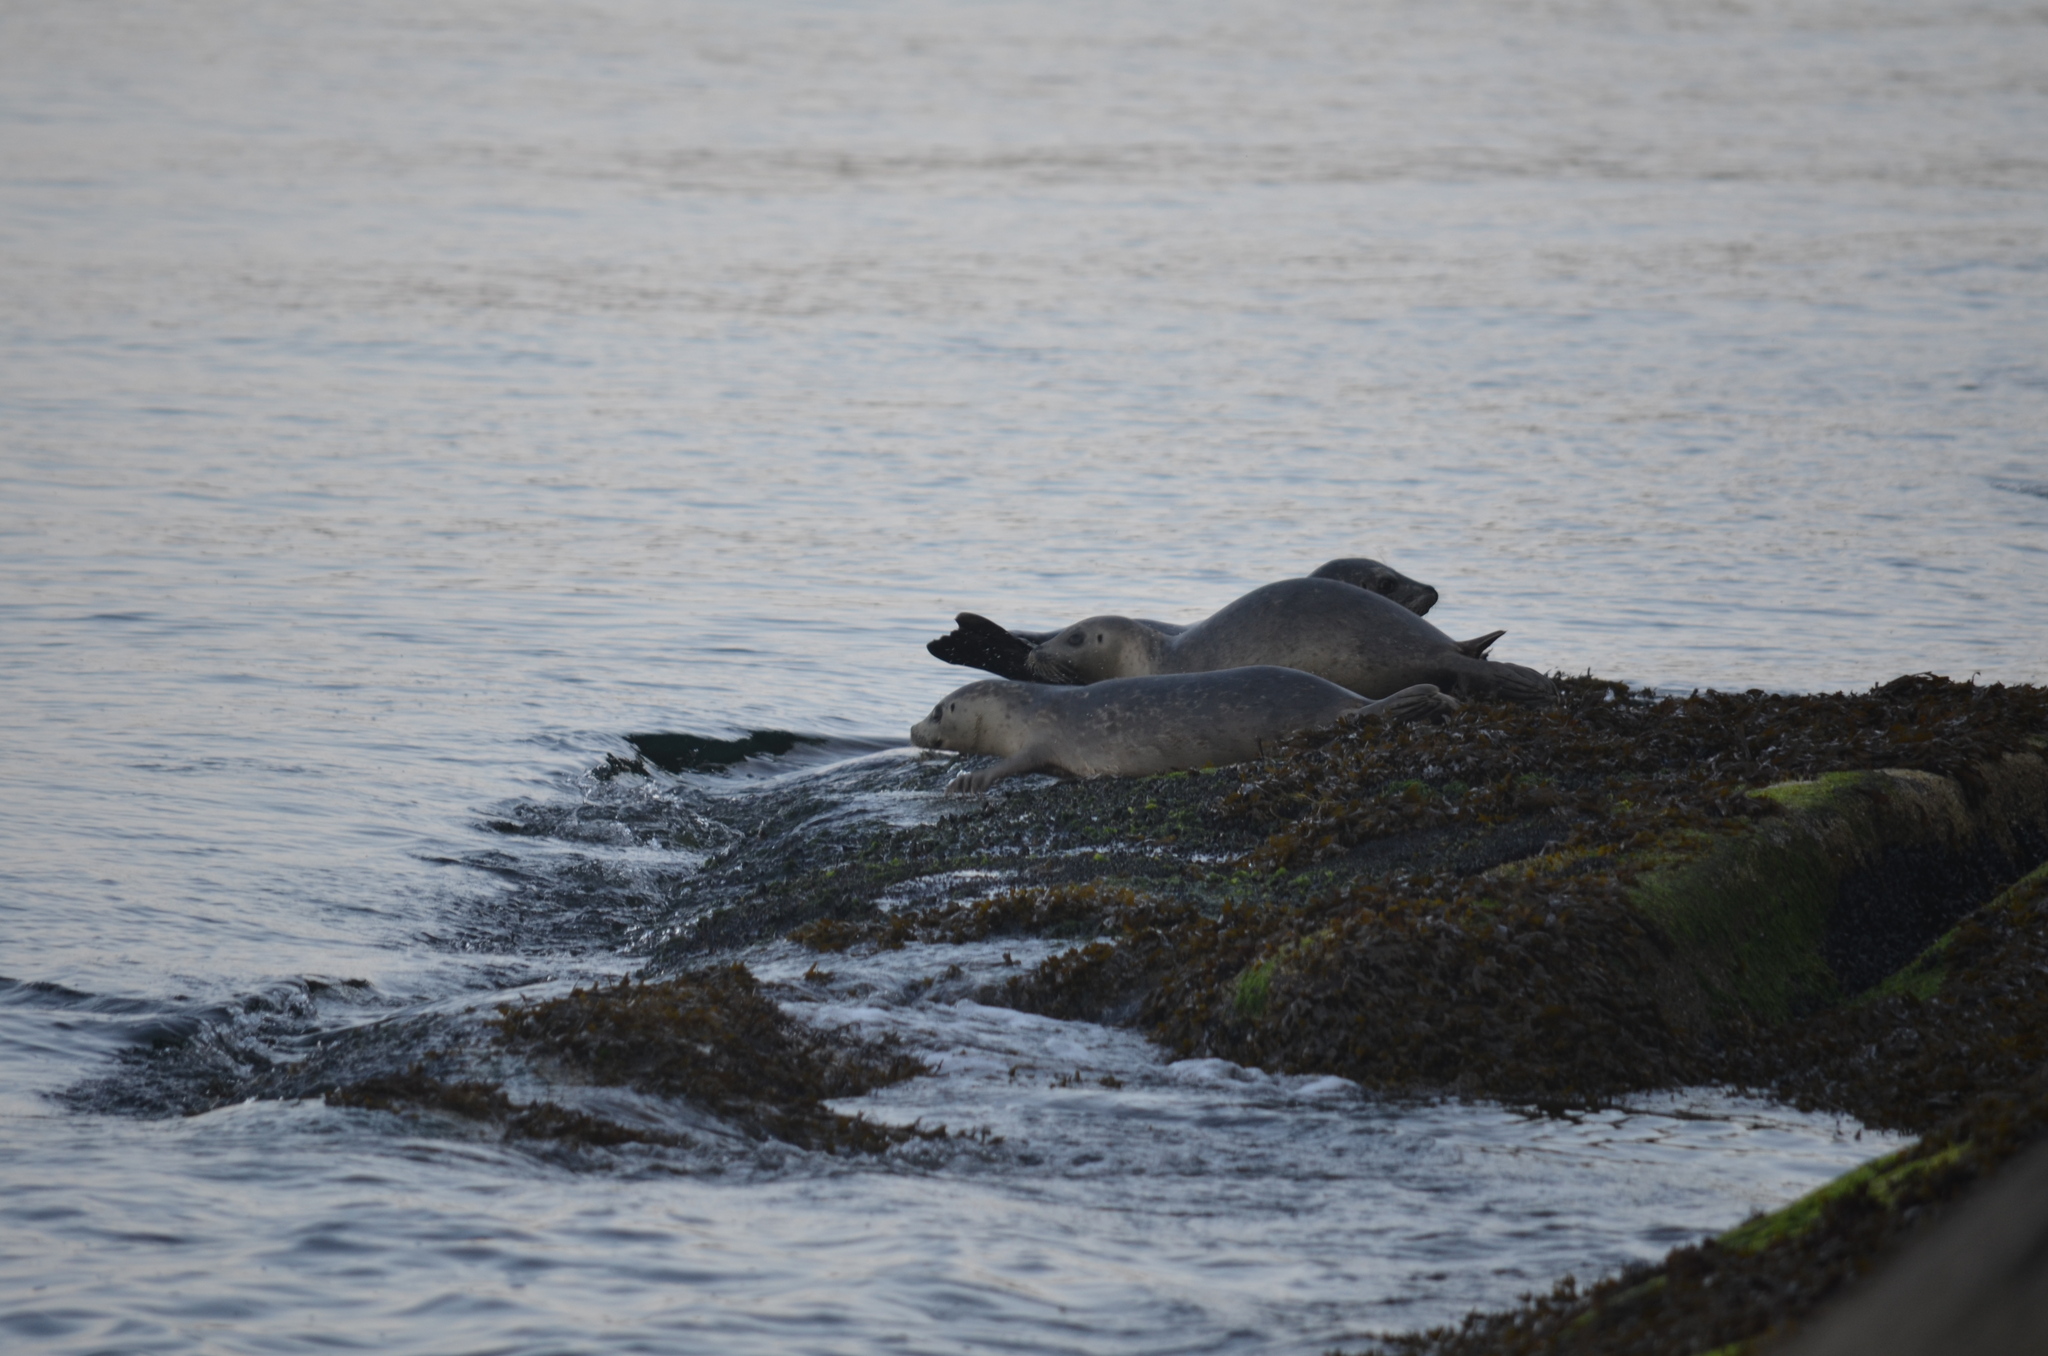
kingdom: Animalia
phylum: Chordata
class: Mammalia
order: Carnivora
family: Phocidae
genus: Phoca
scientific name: Phoca vitulina
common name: Harbor seal
